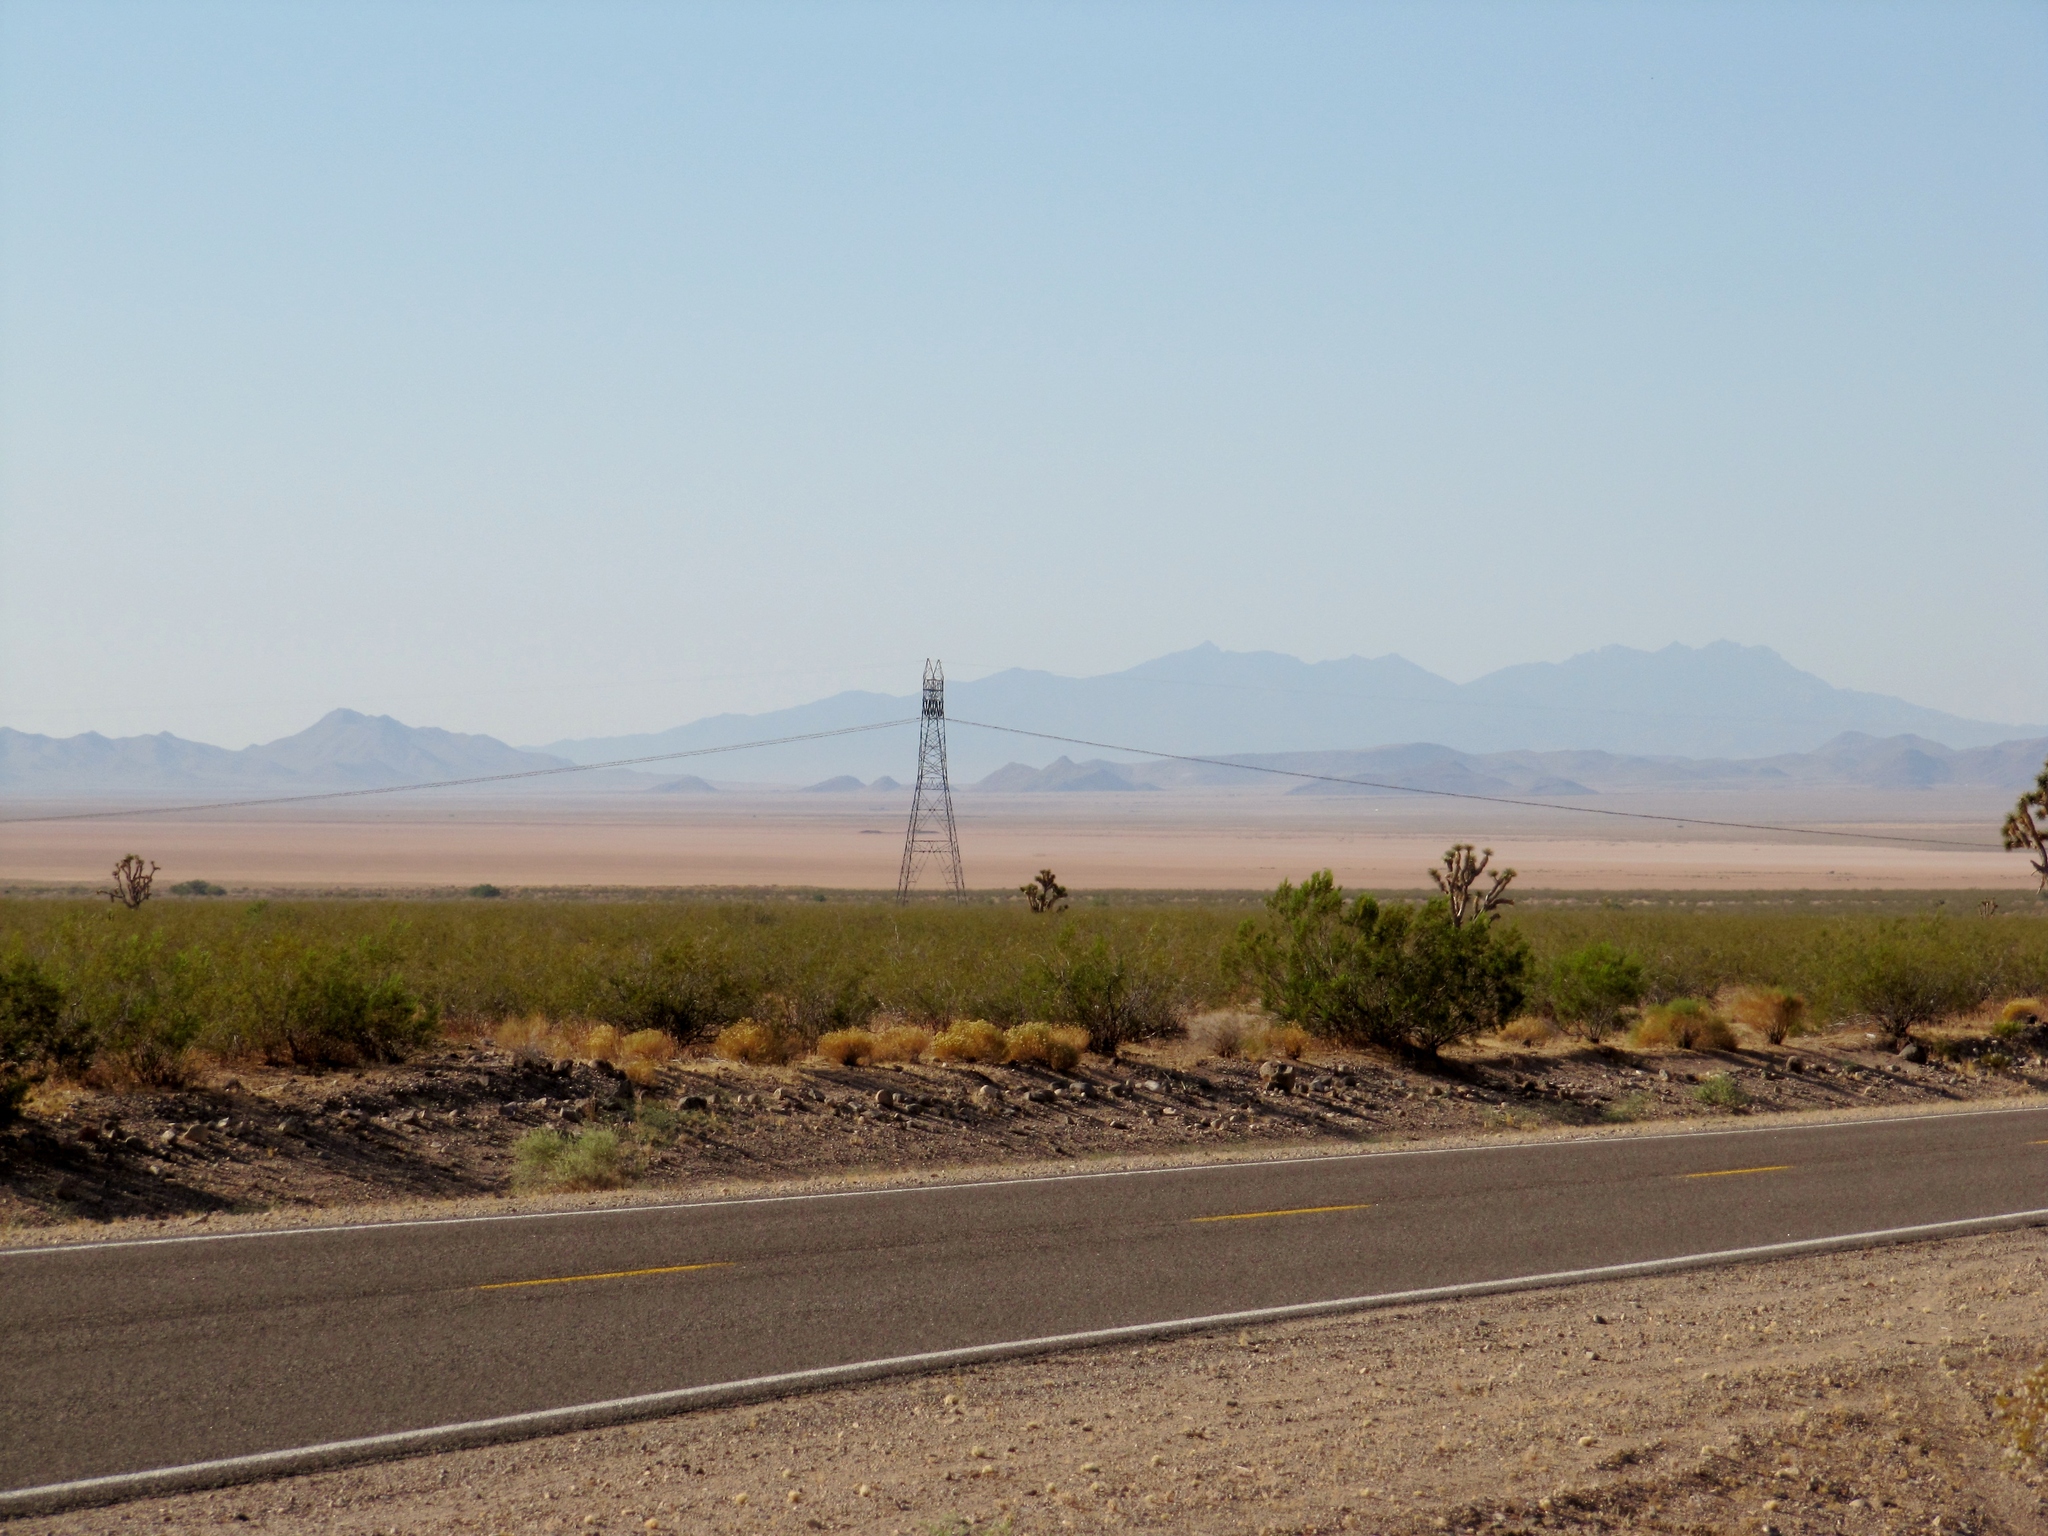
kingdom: Plantae
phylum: Tracheophyta
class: Liliopsida
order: Asparagales
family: Asparagaceae
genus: Yucca
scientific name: Yucca brevifolia
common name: Joshua tree
